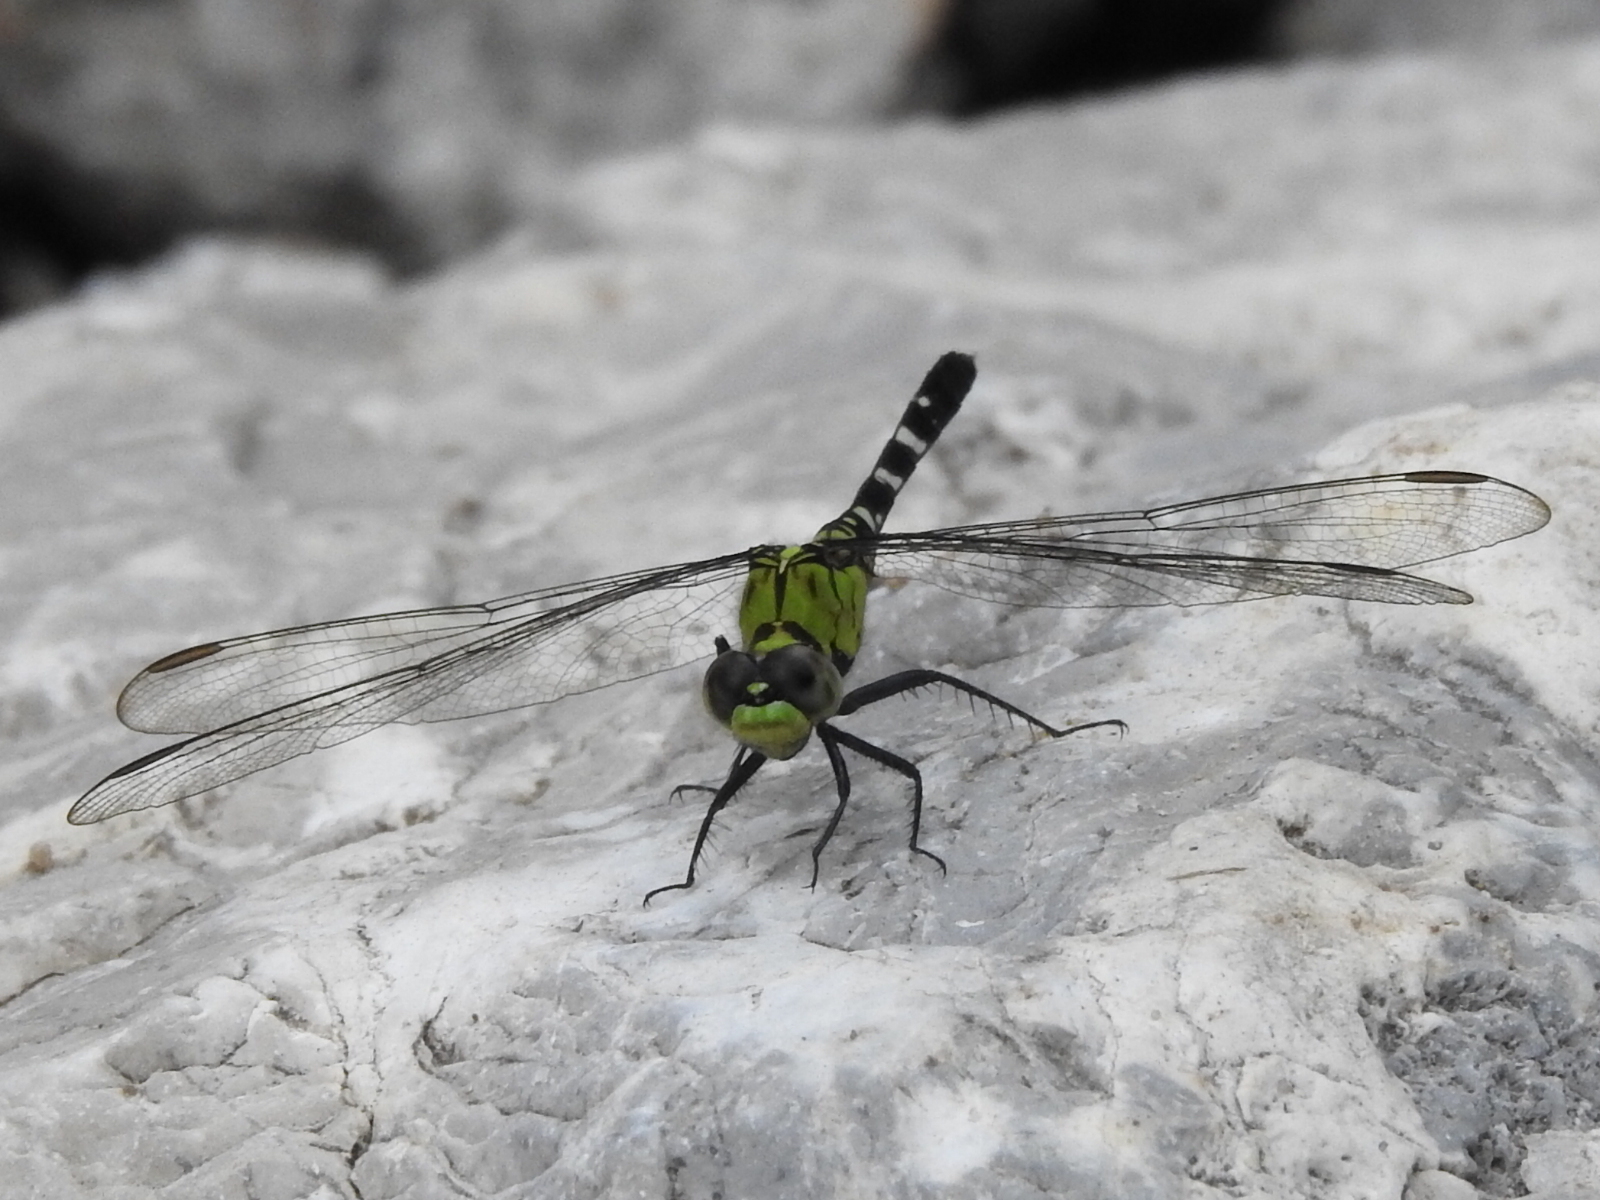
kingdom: Animalia
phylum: Arthropoda
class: Insecta
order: Odonata
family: Libellulidae
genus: Erythemis
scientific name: Erythemis simplicicollis
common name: Eastern pondhawk
